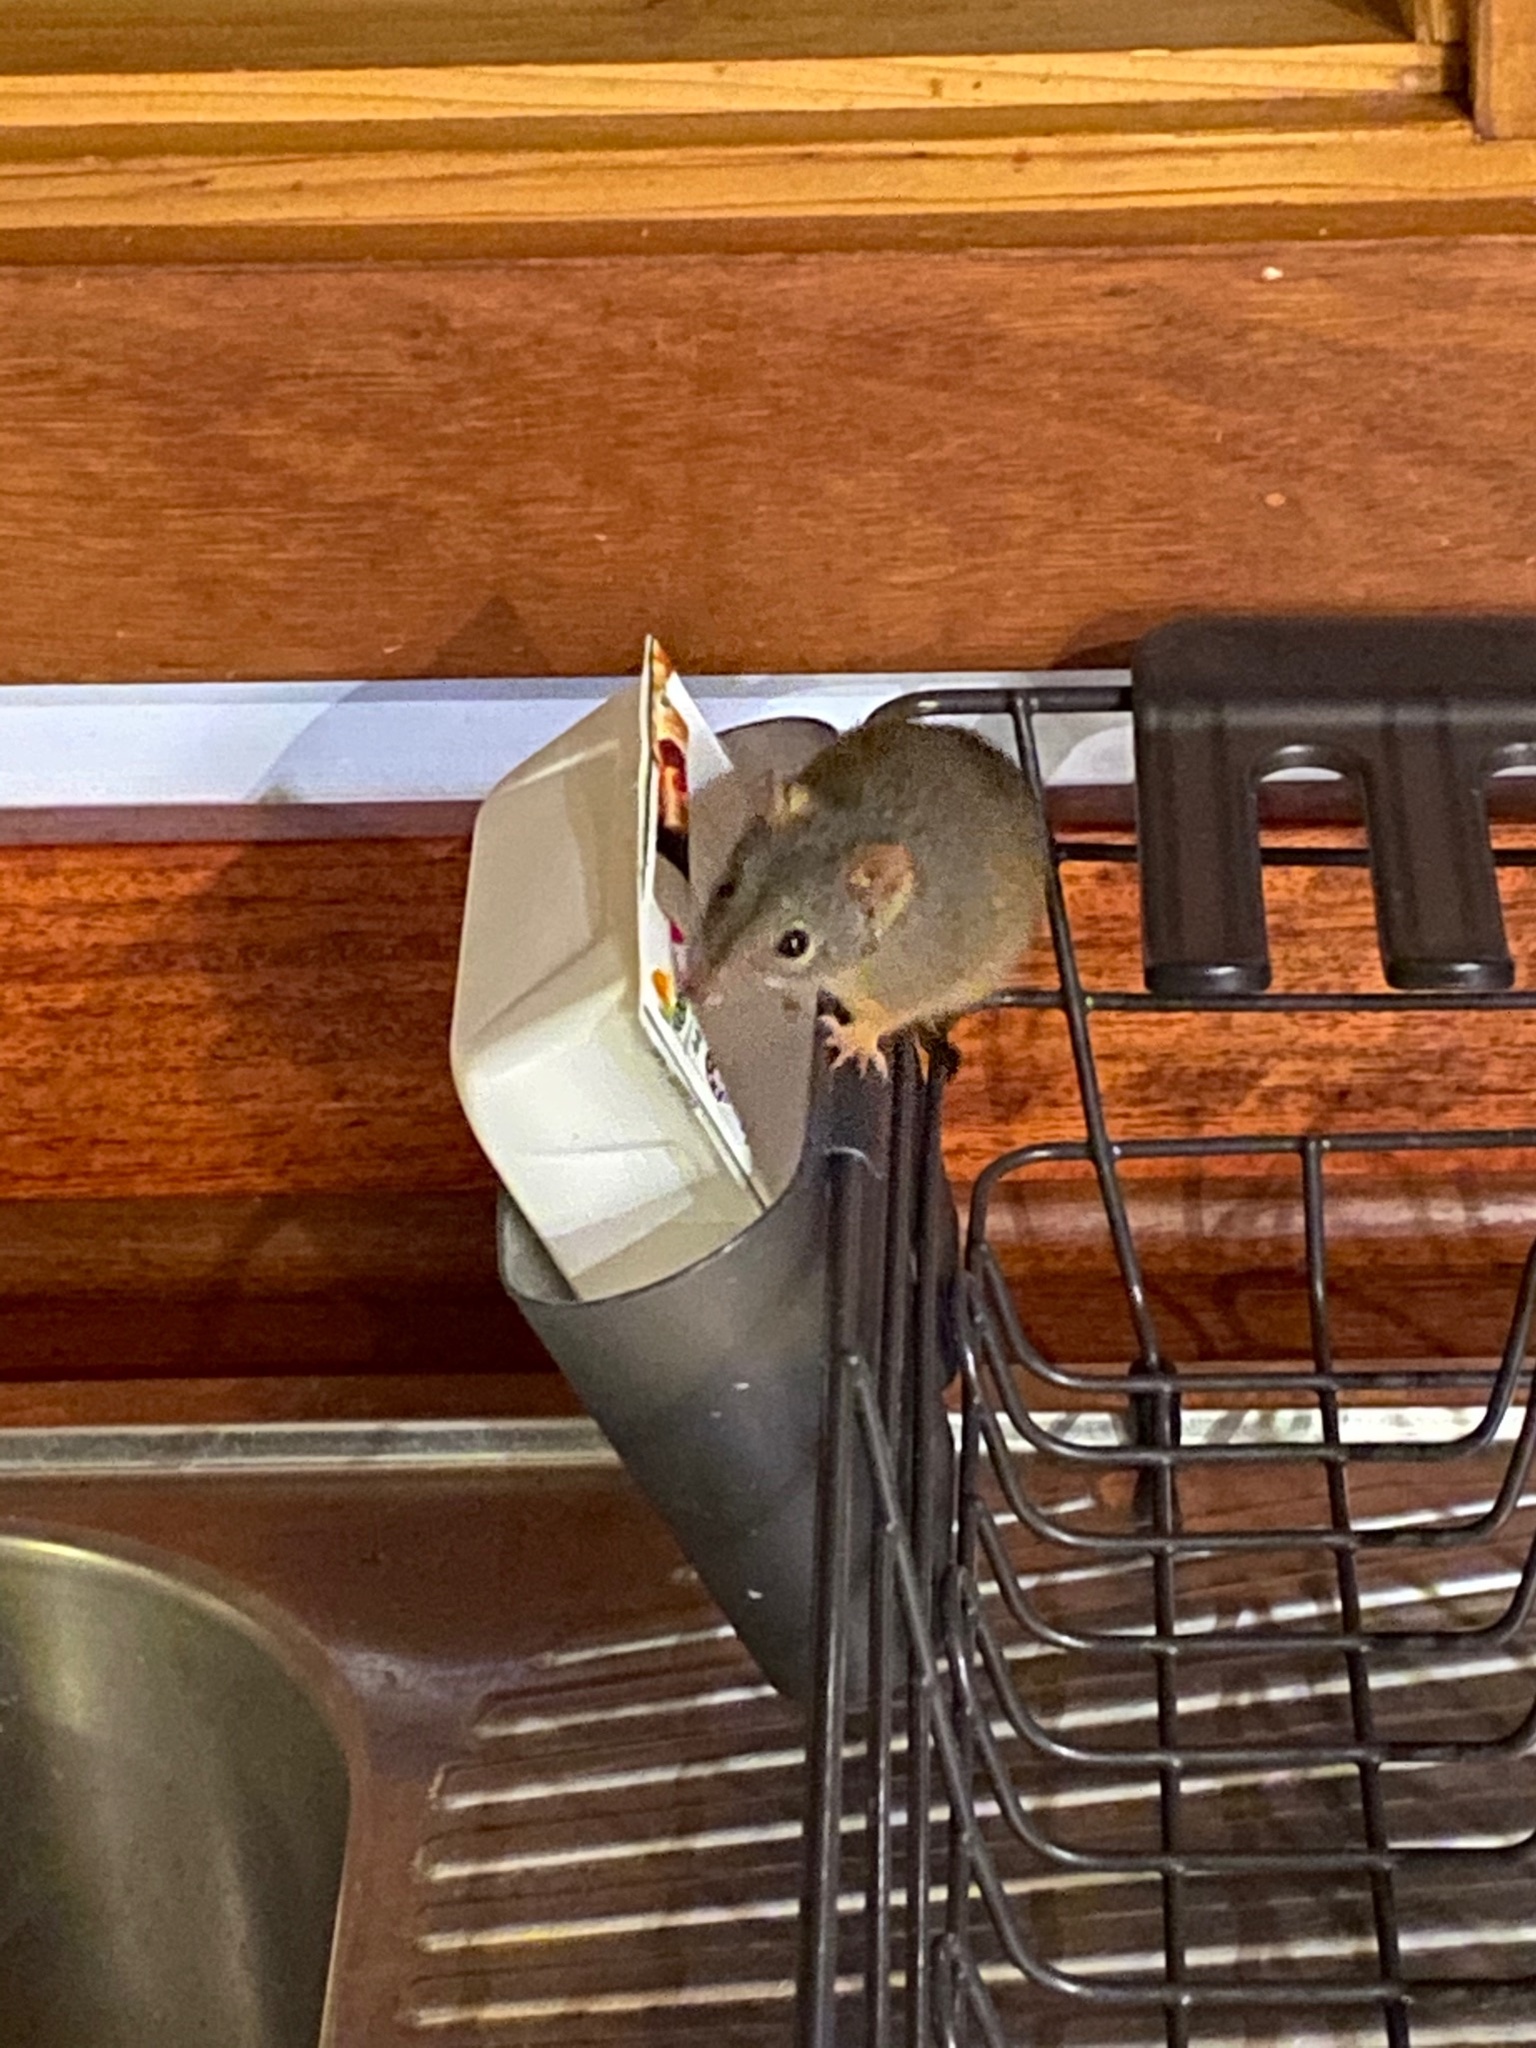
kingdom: Animalia
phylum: Chordata
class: Mammalia
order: Dasyuromorphia
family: Dasyuridae
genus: Antechinus
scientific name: Antechinus flavipes
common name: Yellow-footed antechinus
